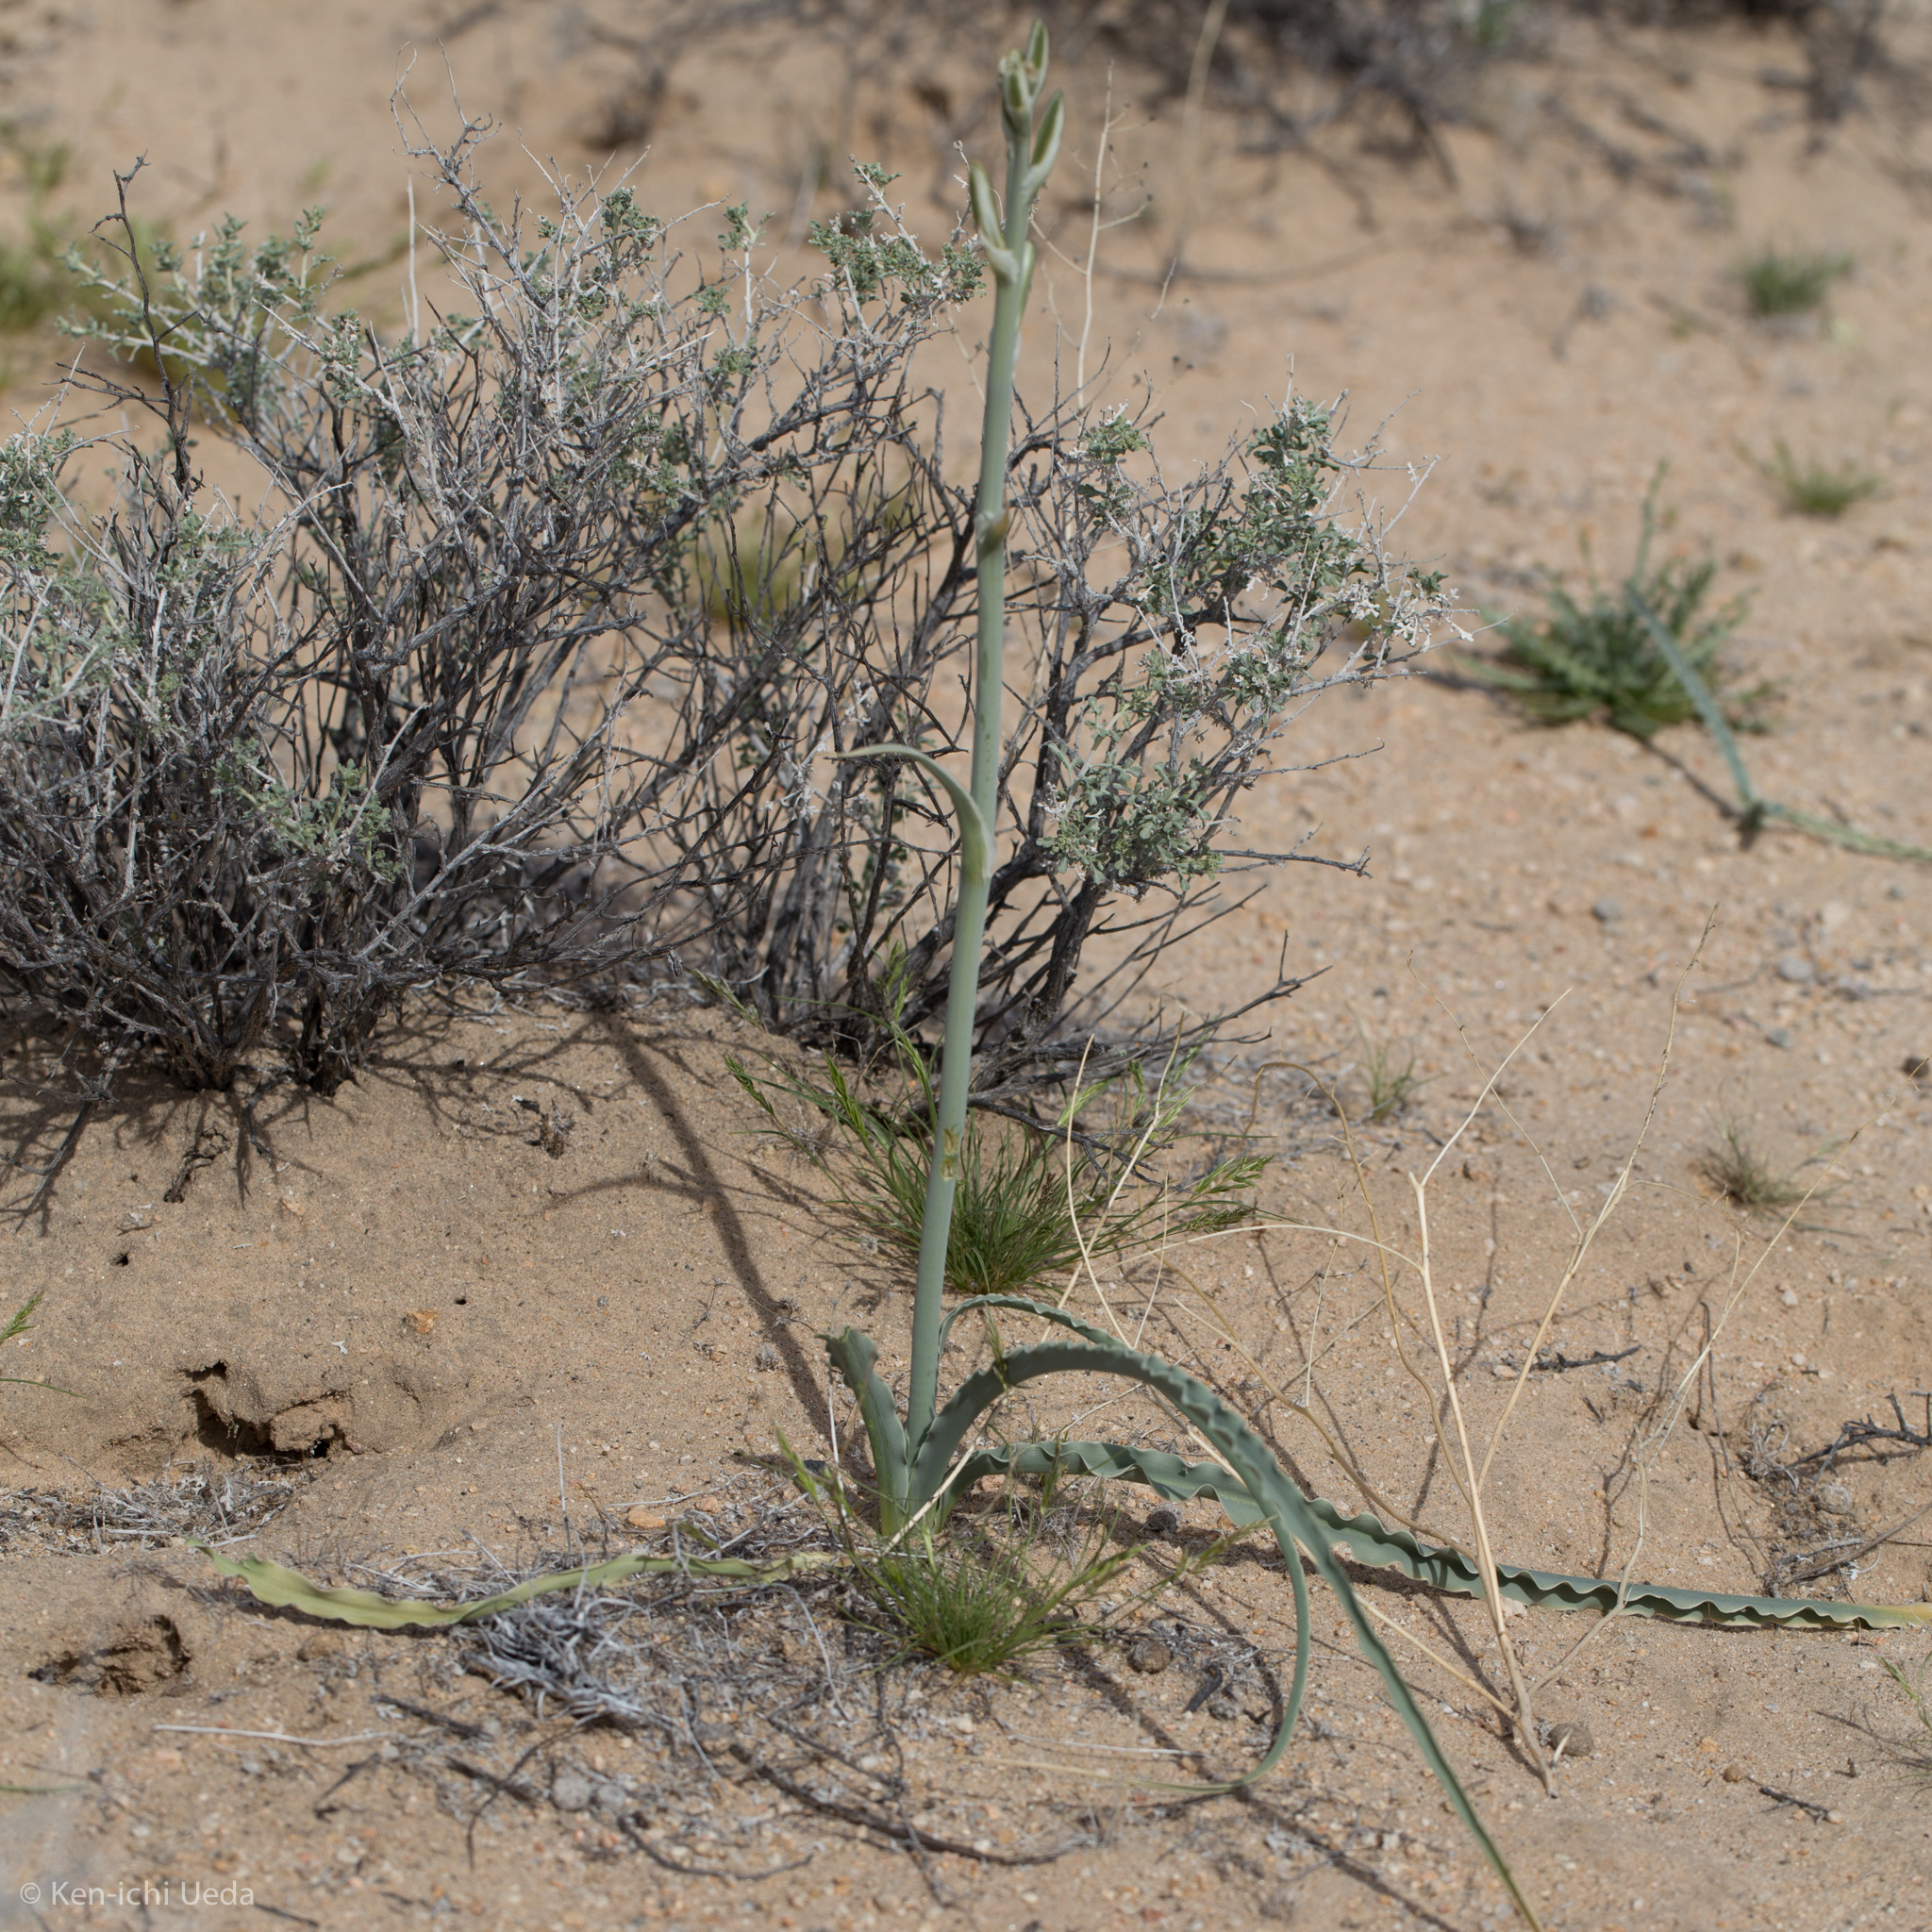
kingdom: Plantae
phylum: Tracheophyta
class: Liliopsida
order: Asparagales
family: Asparagaceae
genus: Hesperocallis
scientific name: Hesperocallis undulata
